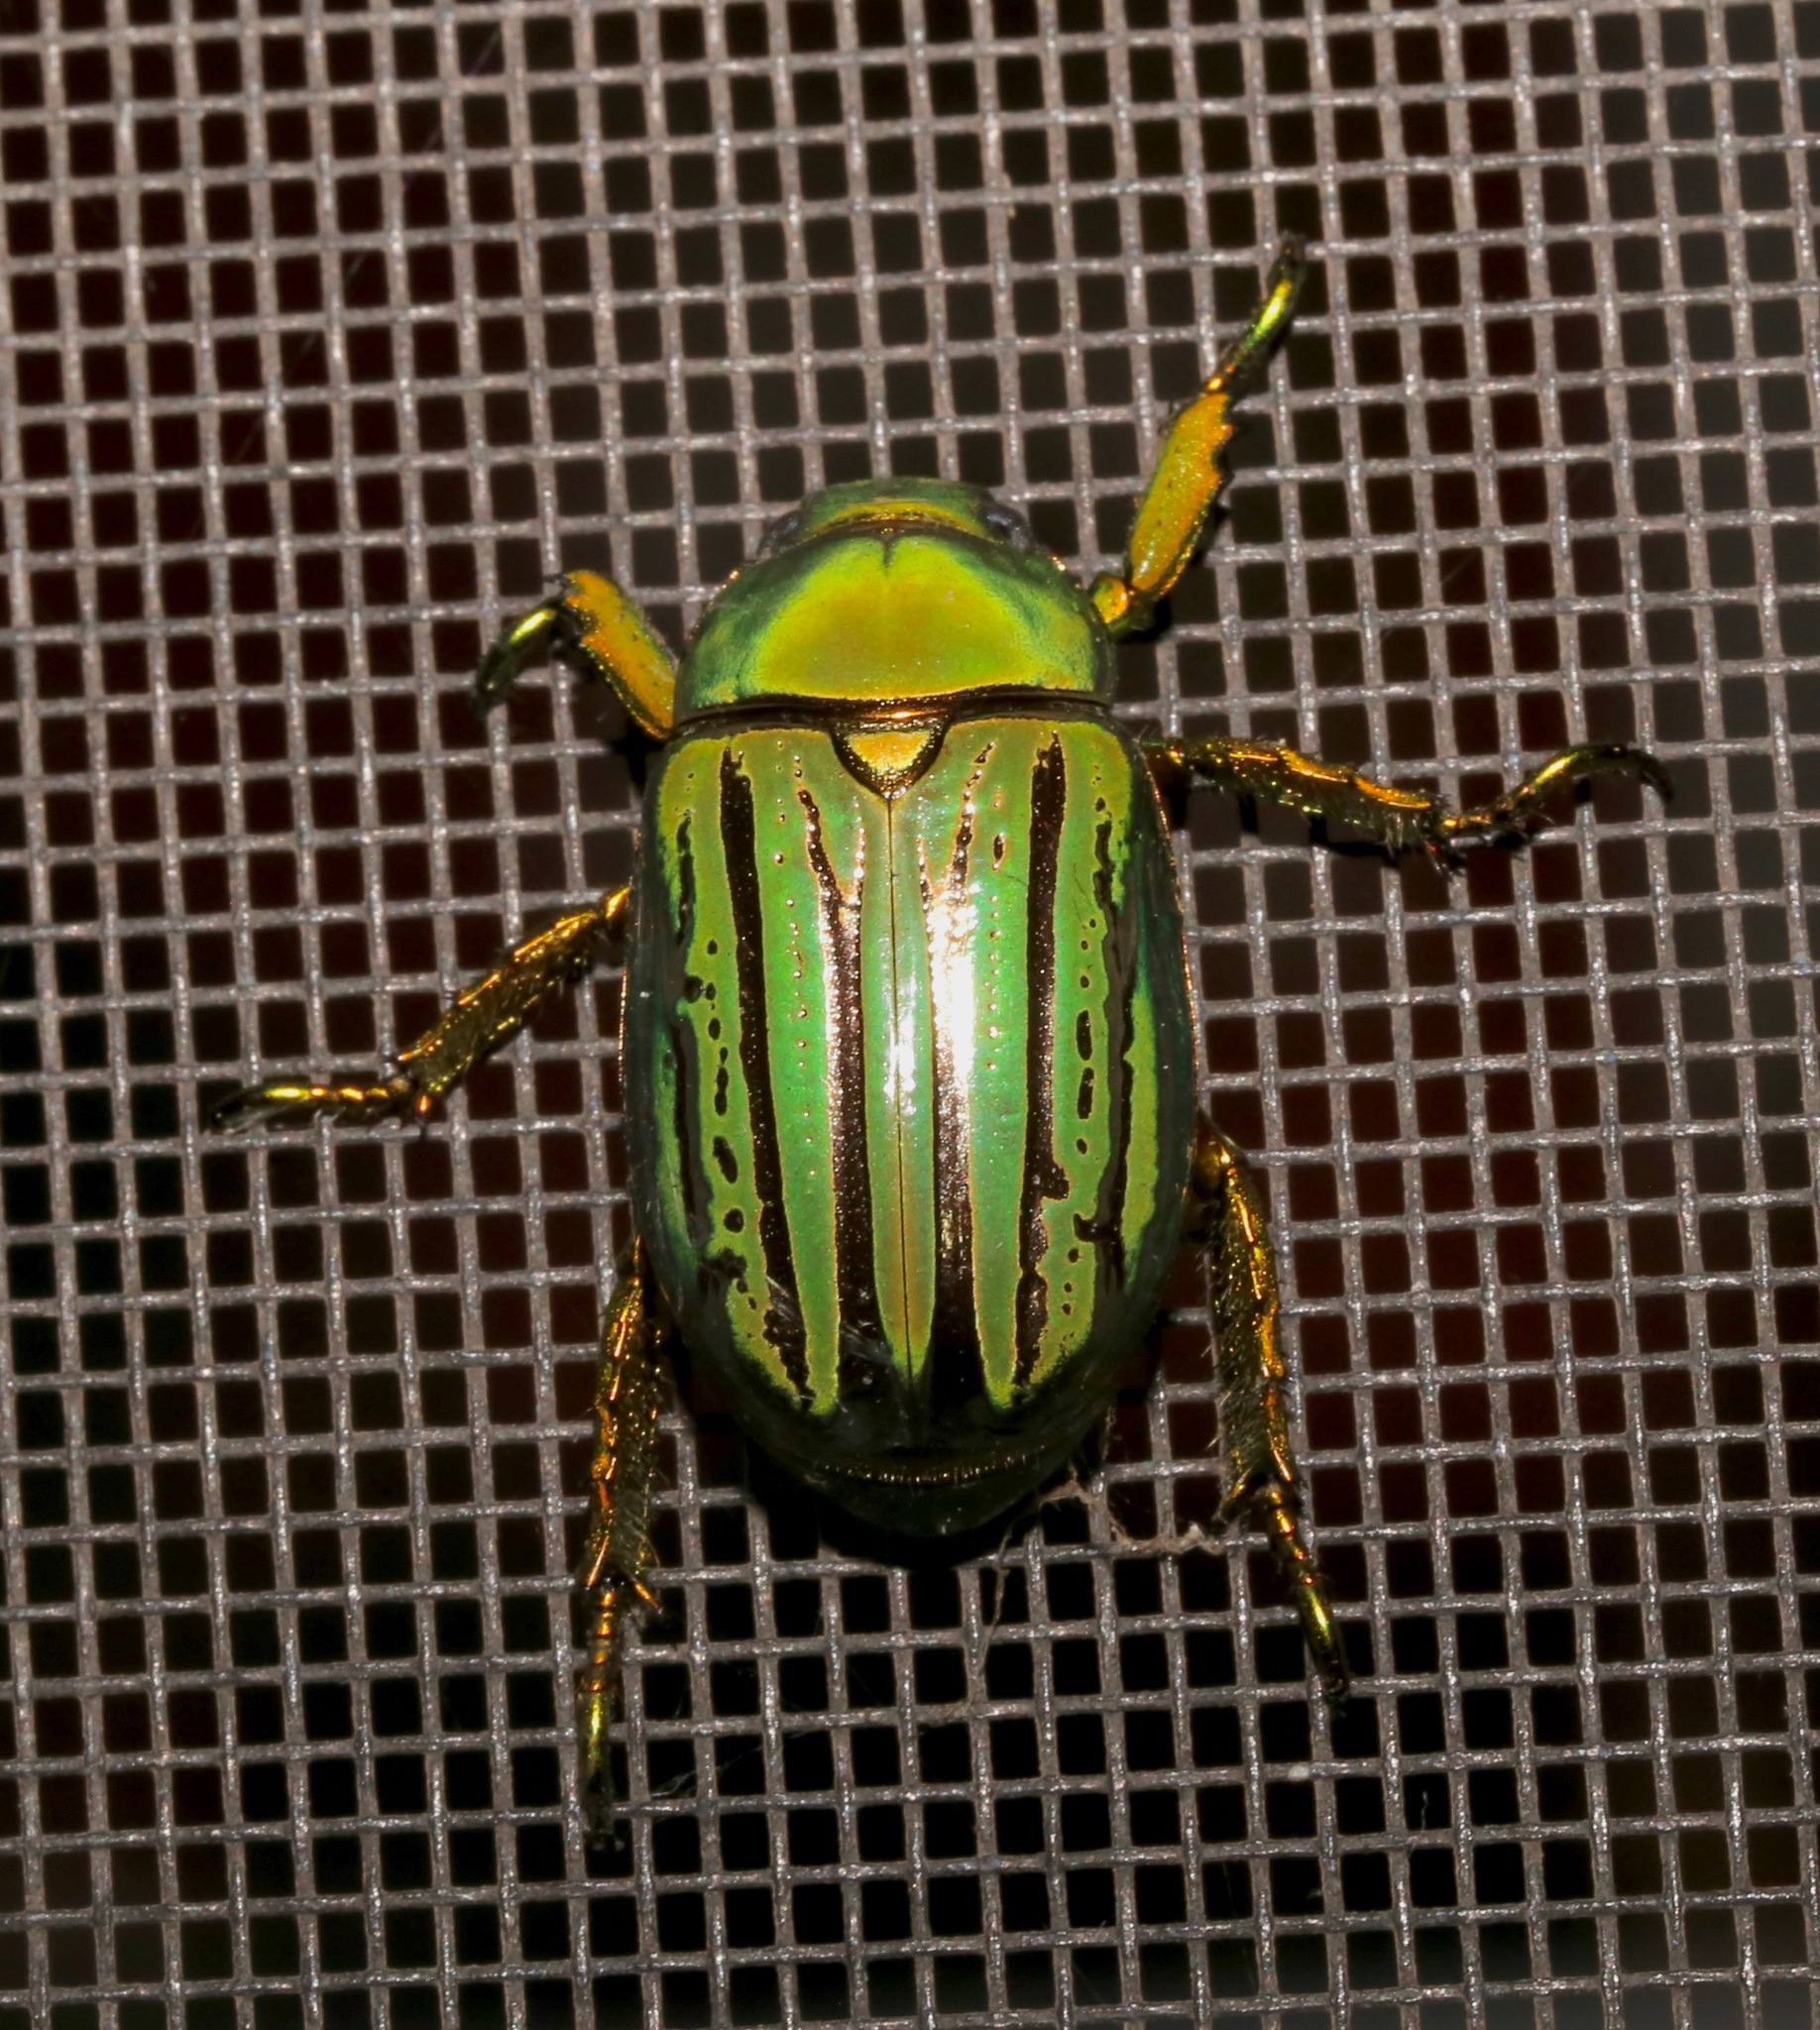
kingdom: Animalia
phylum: Arthropoda
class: Insecta
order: Coleoptera
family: Scarabaeidae
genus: Chrysina
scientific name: Chrysina gloriosa
